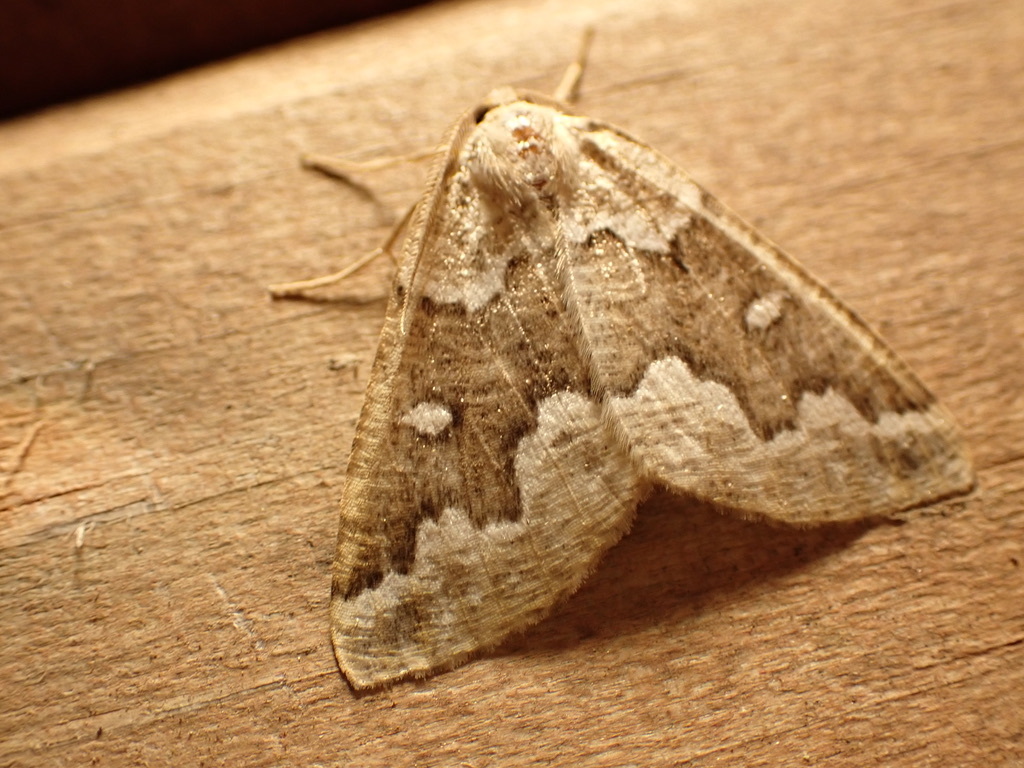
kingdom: Animalia
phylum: Arthropoda
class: Insecta
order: Lepidoptera
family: Geometridae
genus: Caripeta
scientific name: Caripeta divisata
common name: Gray spruce looper
